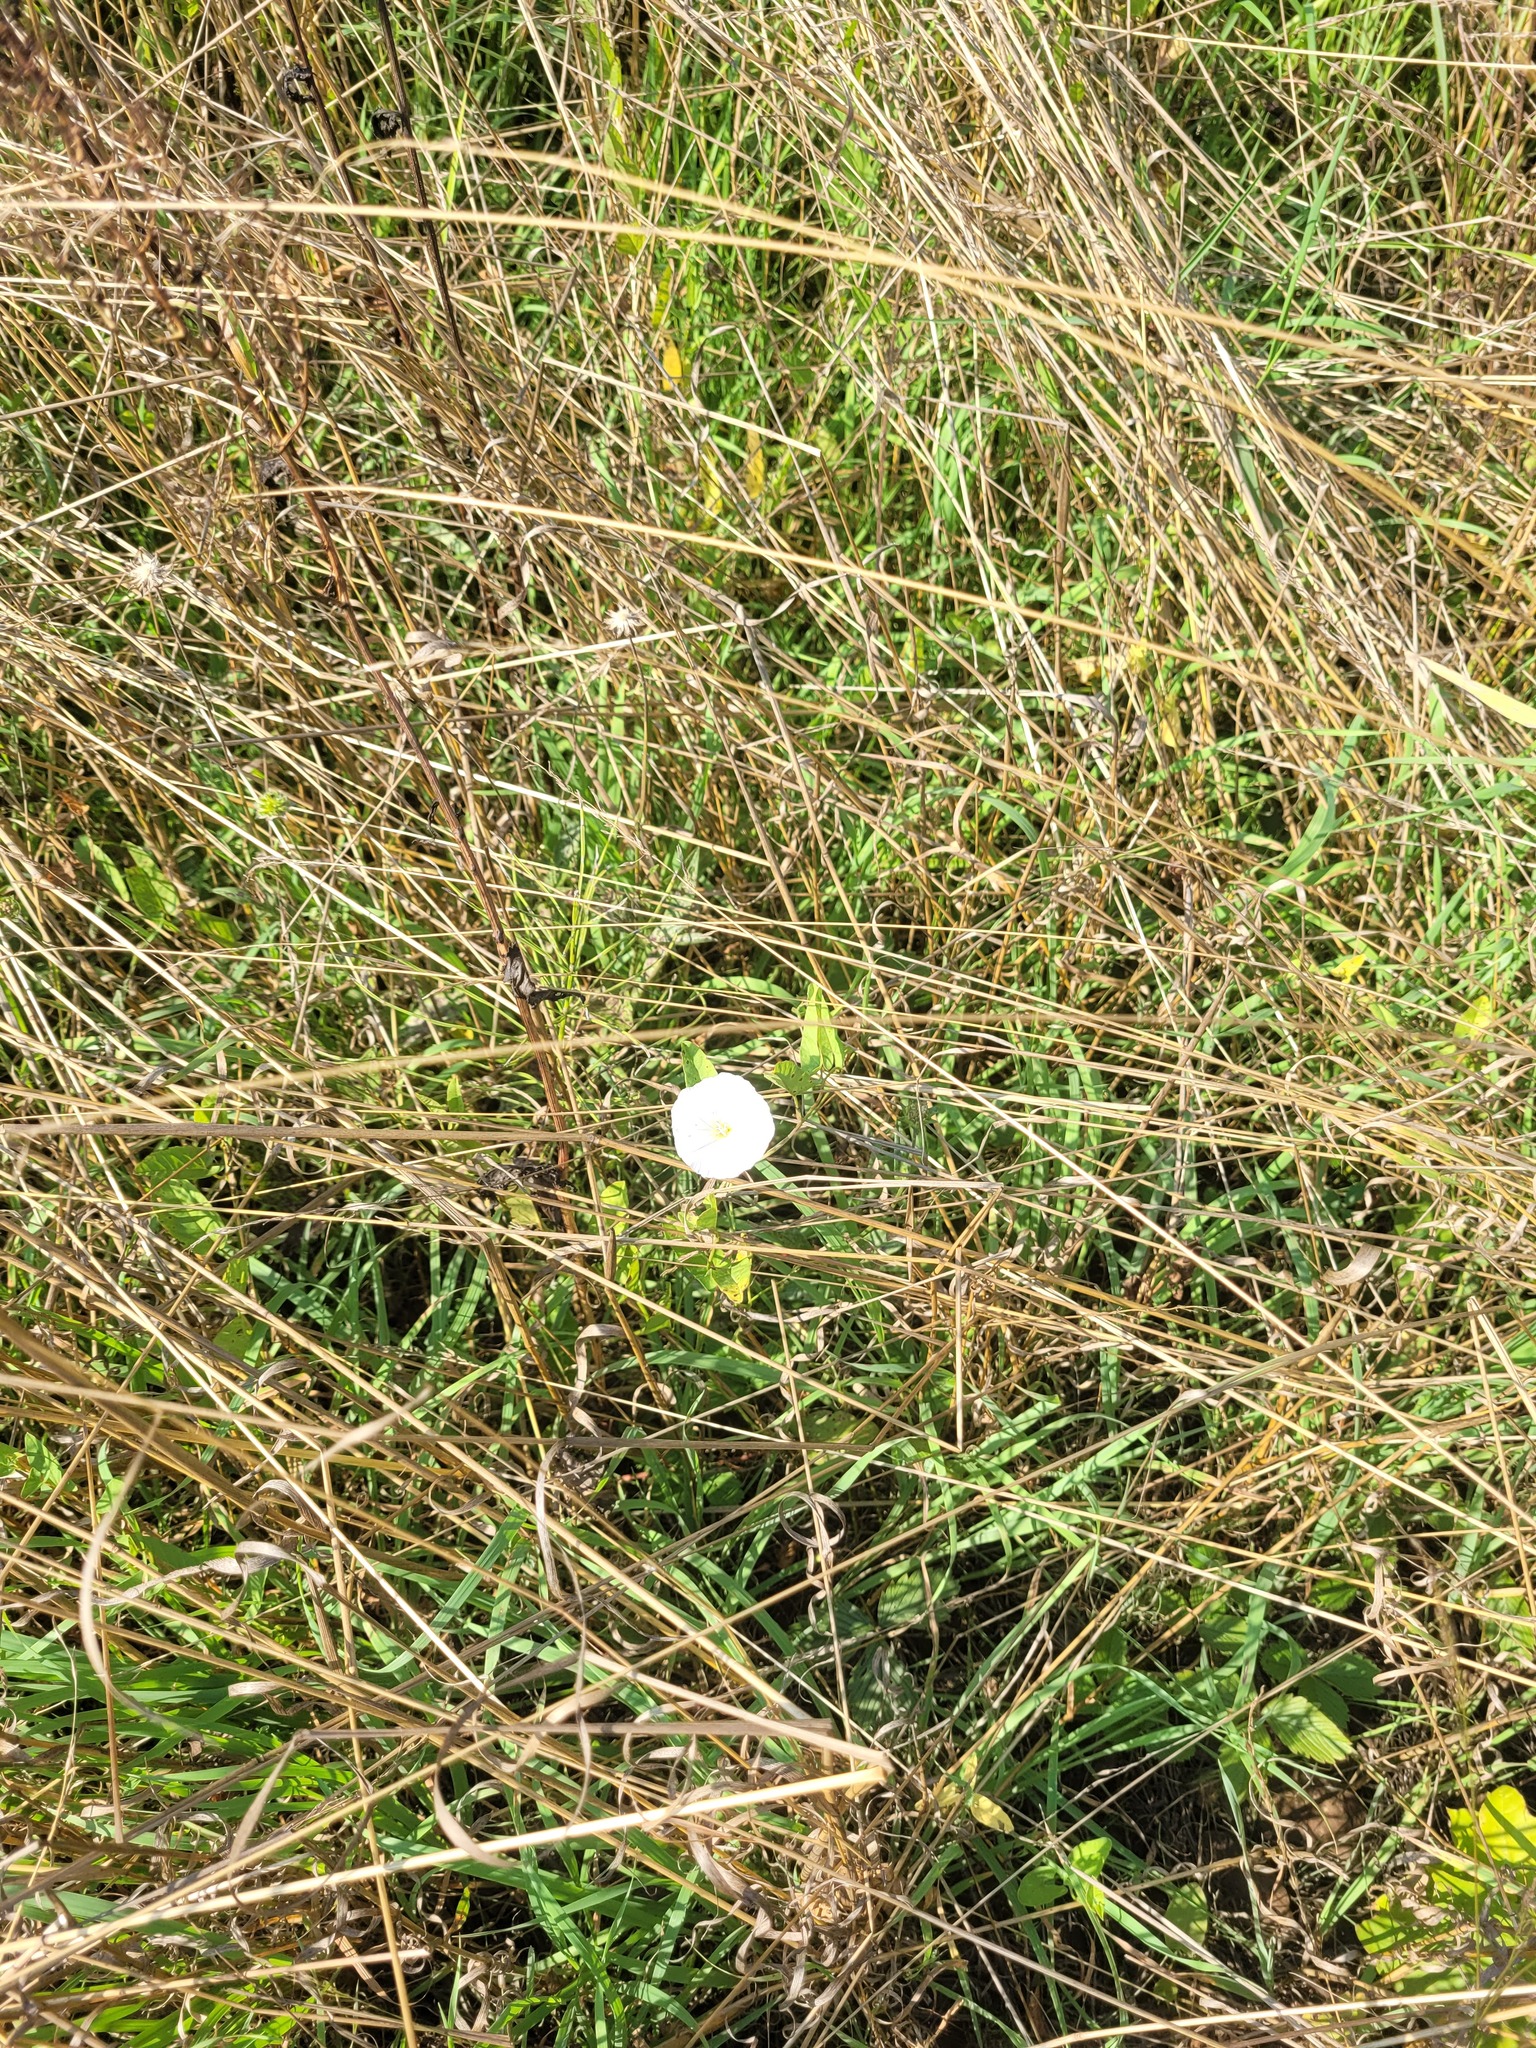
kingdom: Plantae
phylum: Tracheophyta
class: Magnoliopsida
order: Solanales
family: Convolvulaceae
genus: Convolvulus
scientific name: Convolvulus arvensis
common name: Field bindweed
